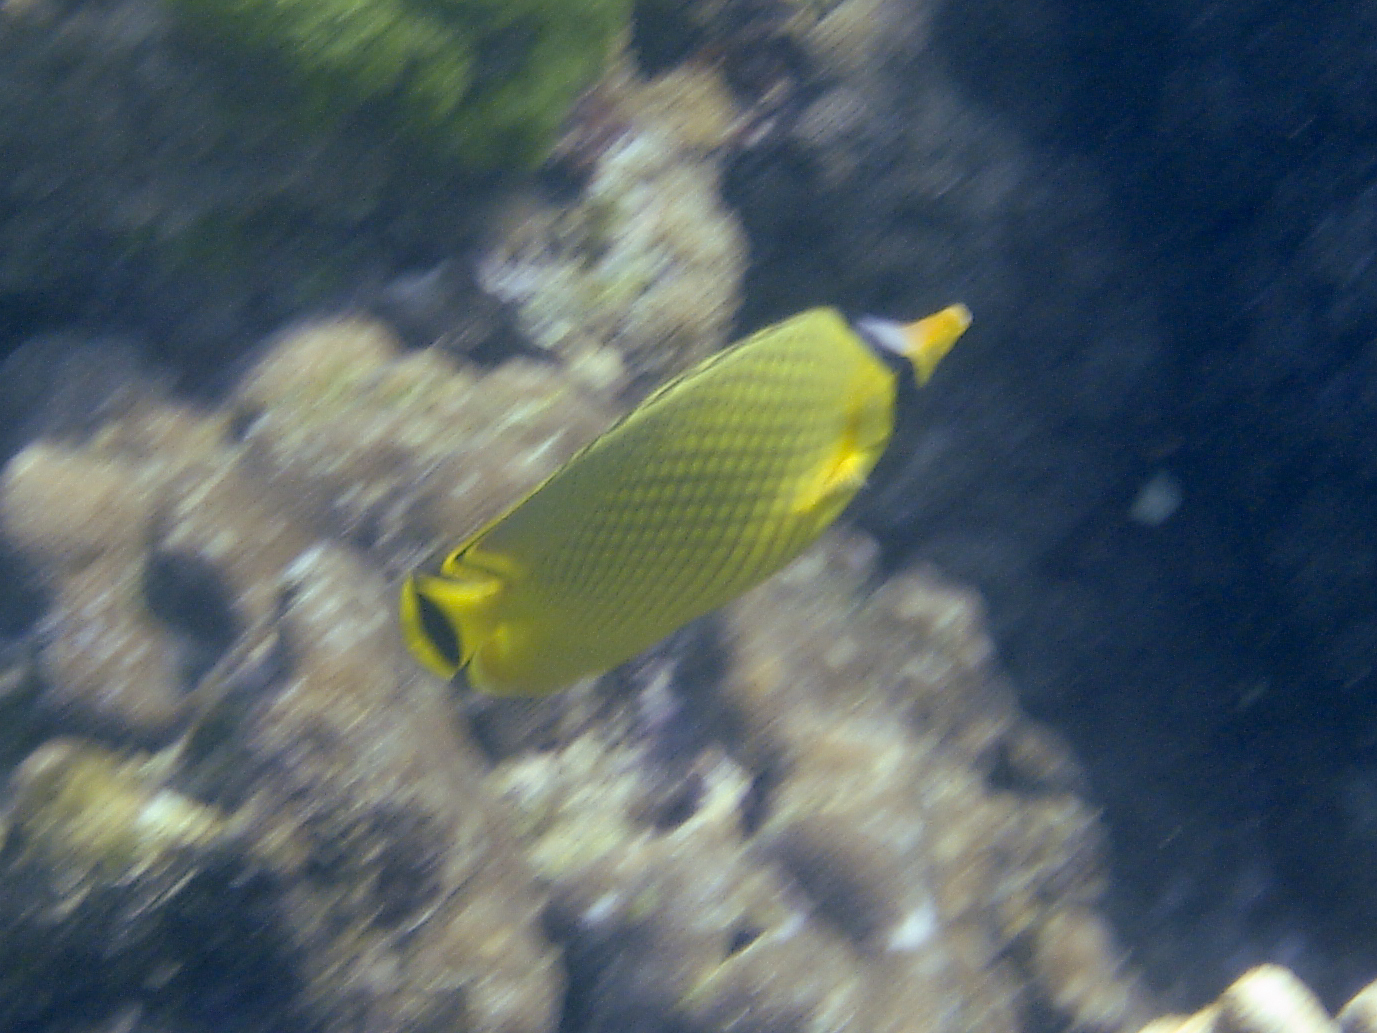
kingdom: Animalia
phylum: Chordata
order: Perciformes
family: Chaetodontidae
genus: Chaetodon
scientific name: Chaetodon rafflesii
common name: Latticed butterflyfish
